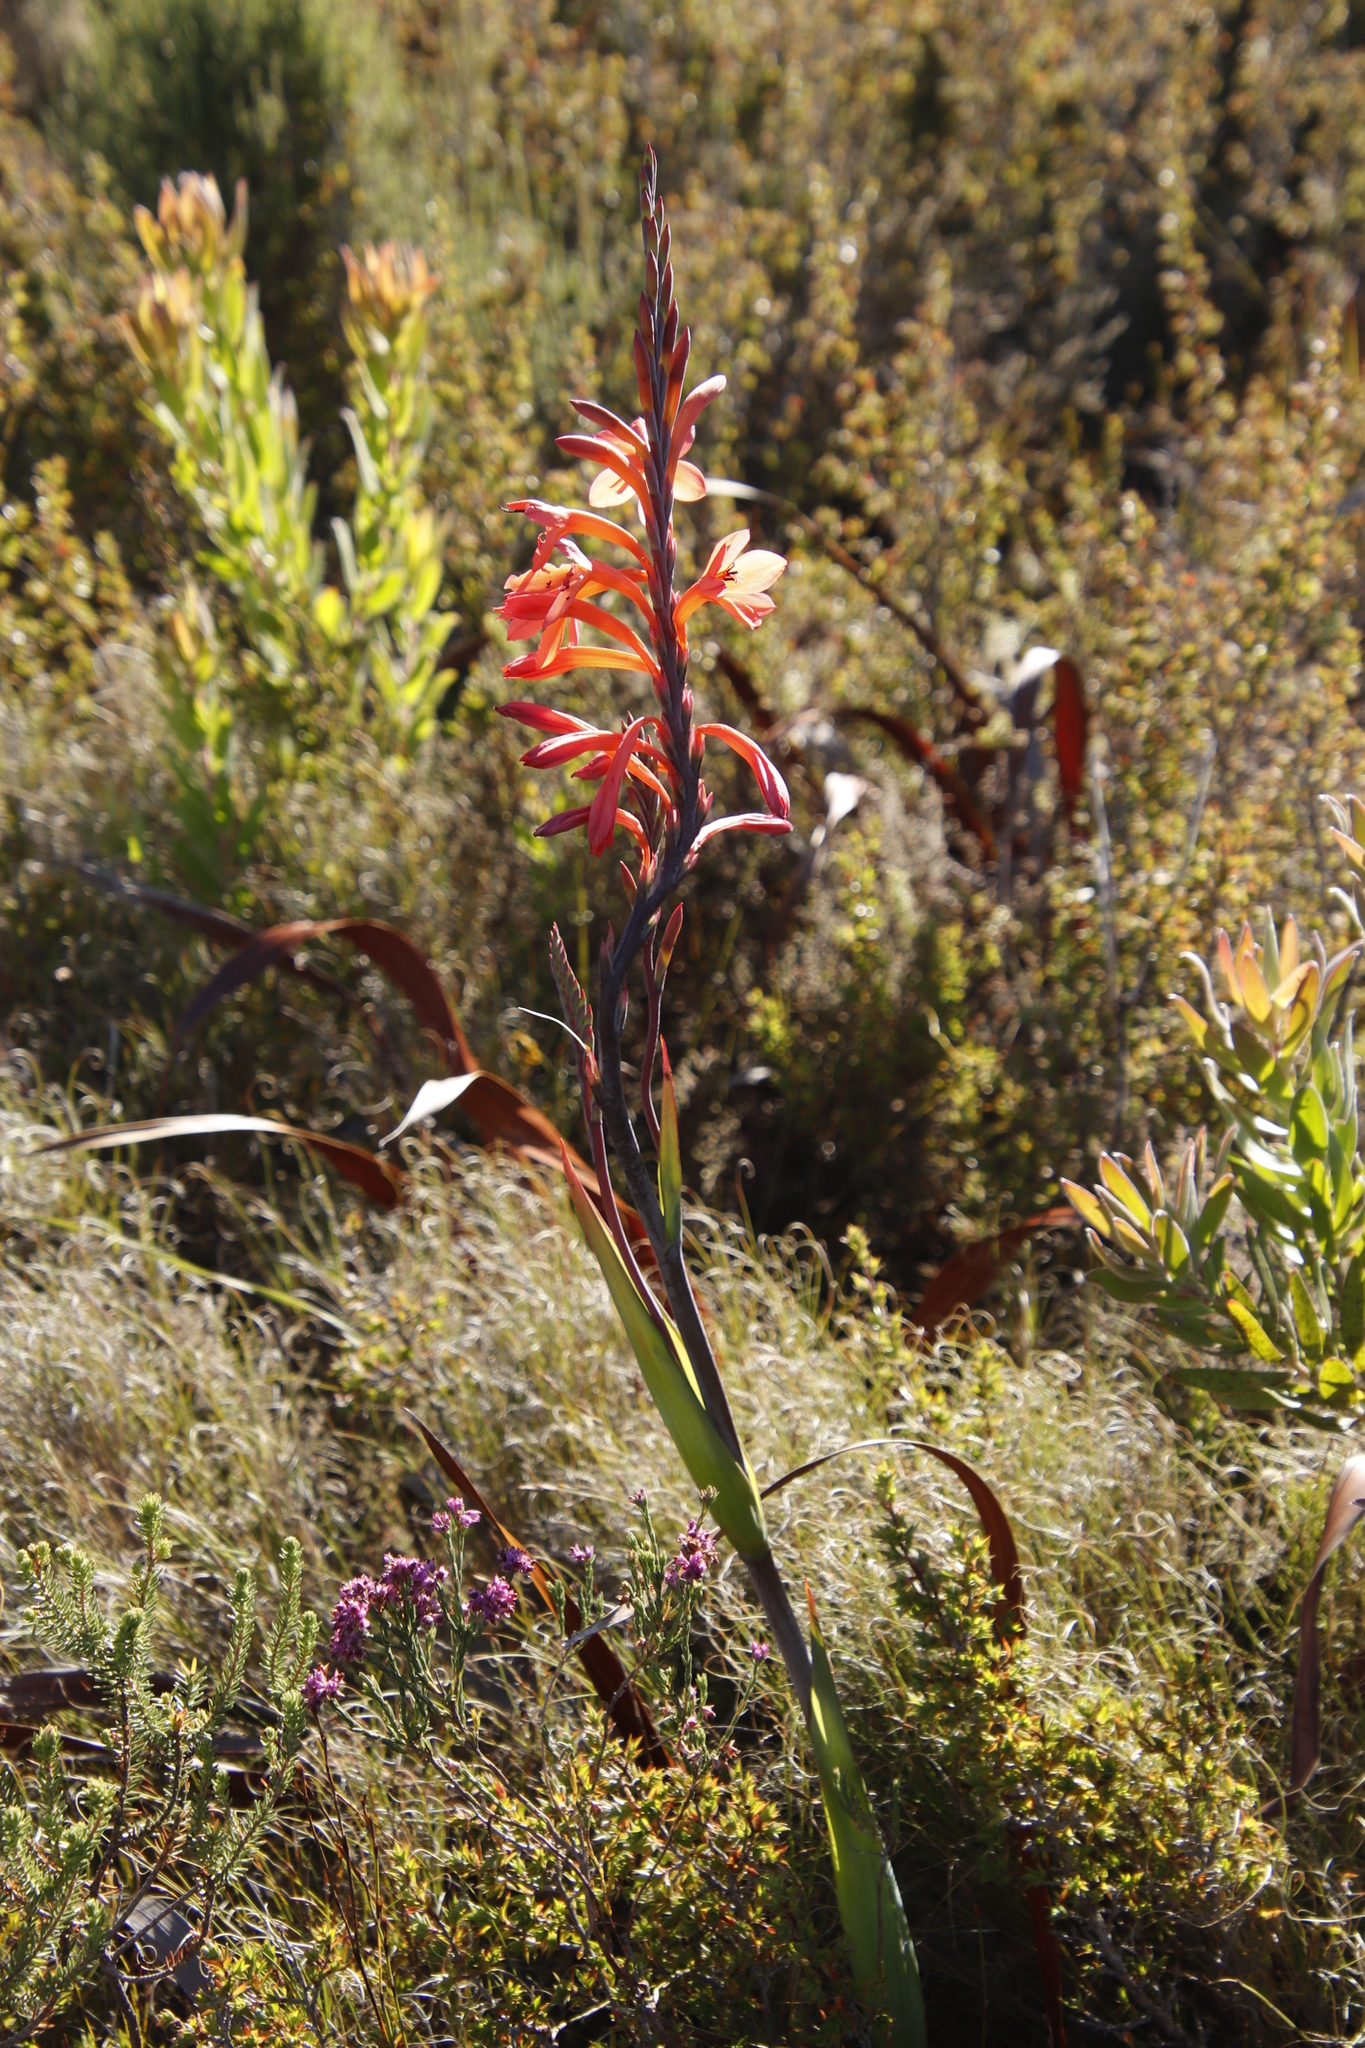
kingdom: Plantae
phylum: Tracheophyta
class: Liliopsida
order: Asparagales
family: Iridaceae
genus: Watsonia
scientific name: Watsonia tabularis
